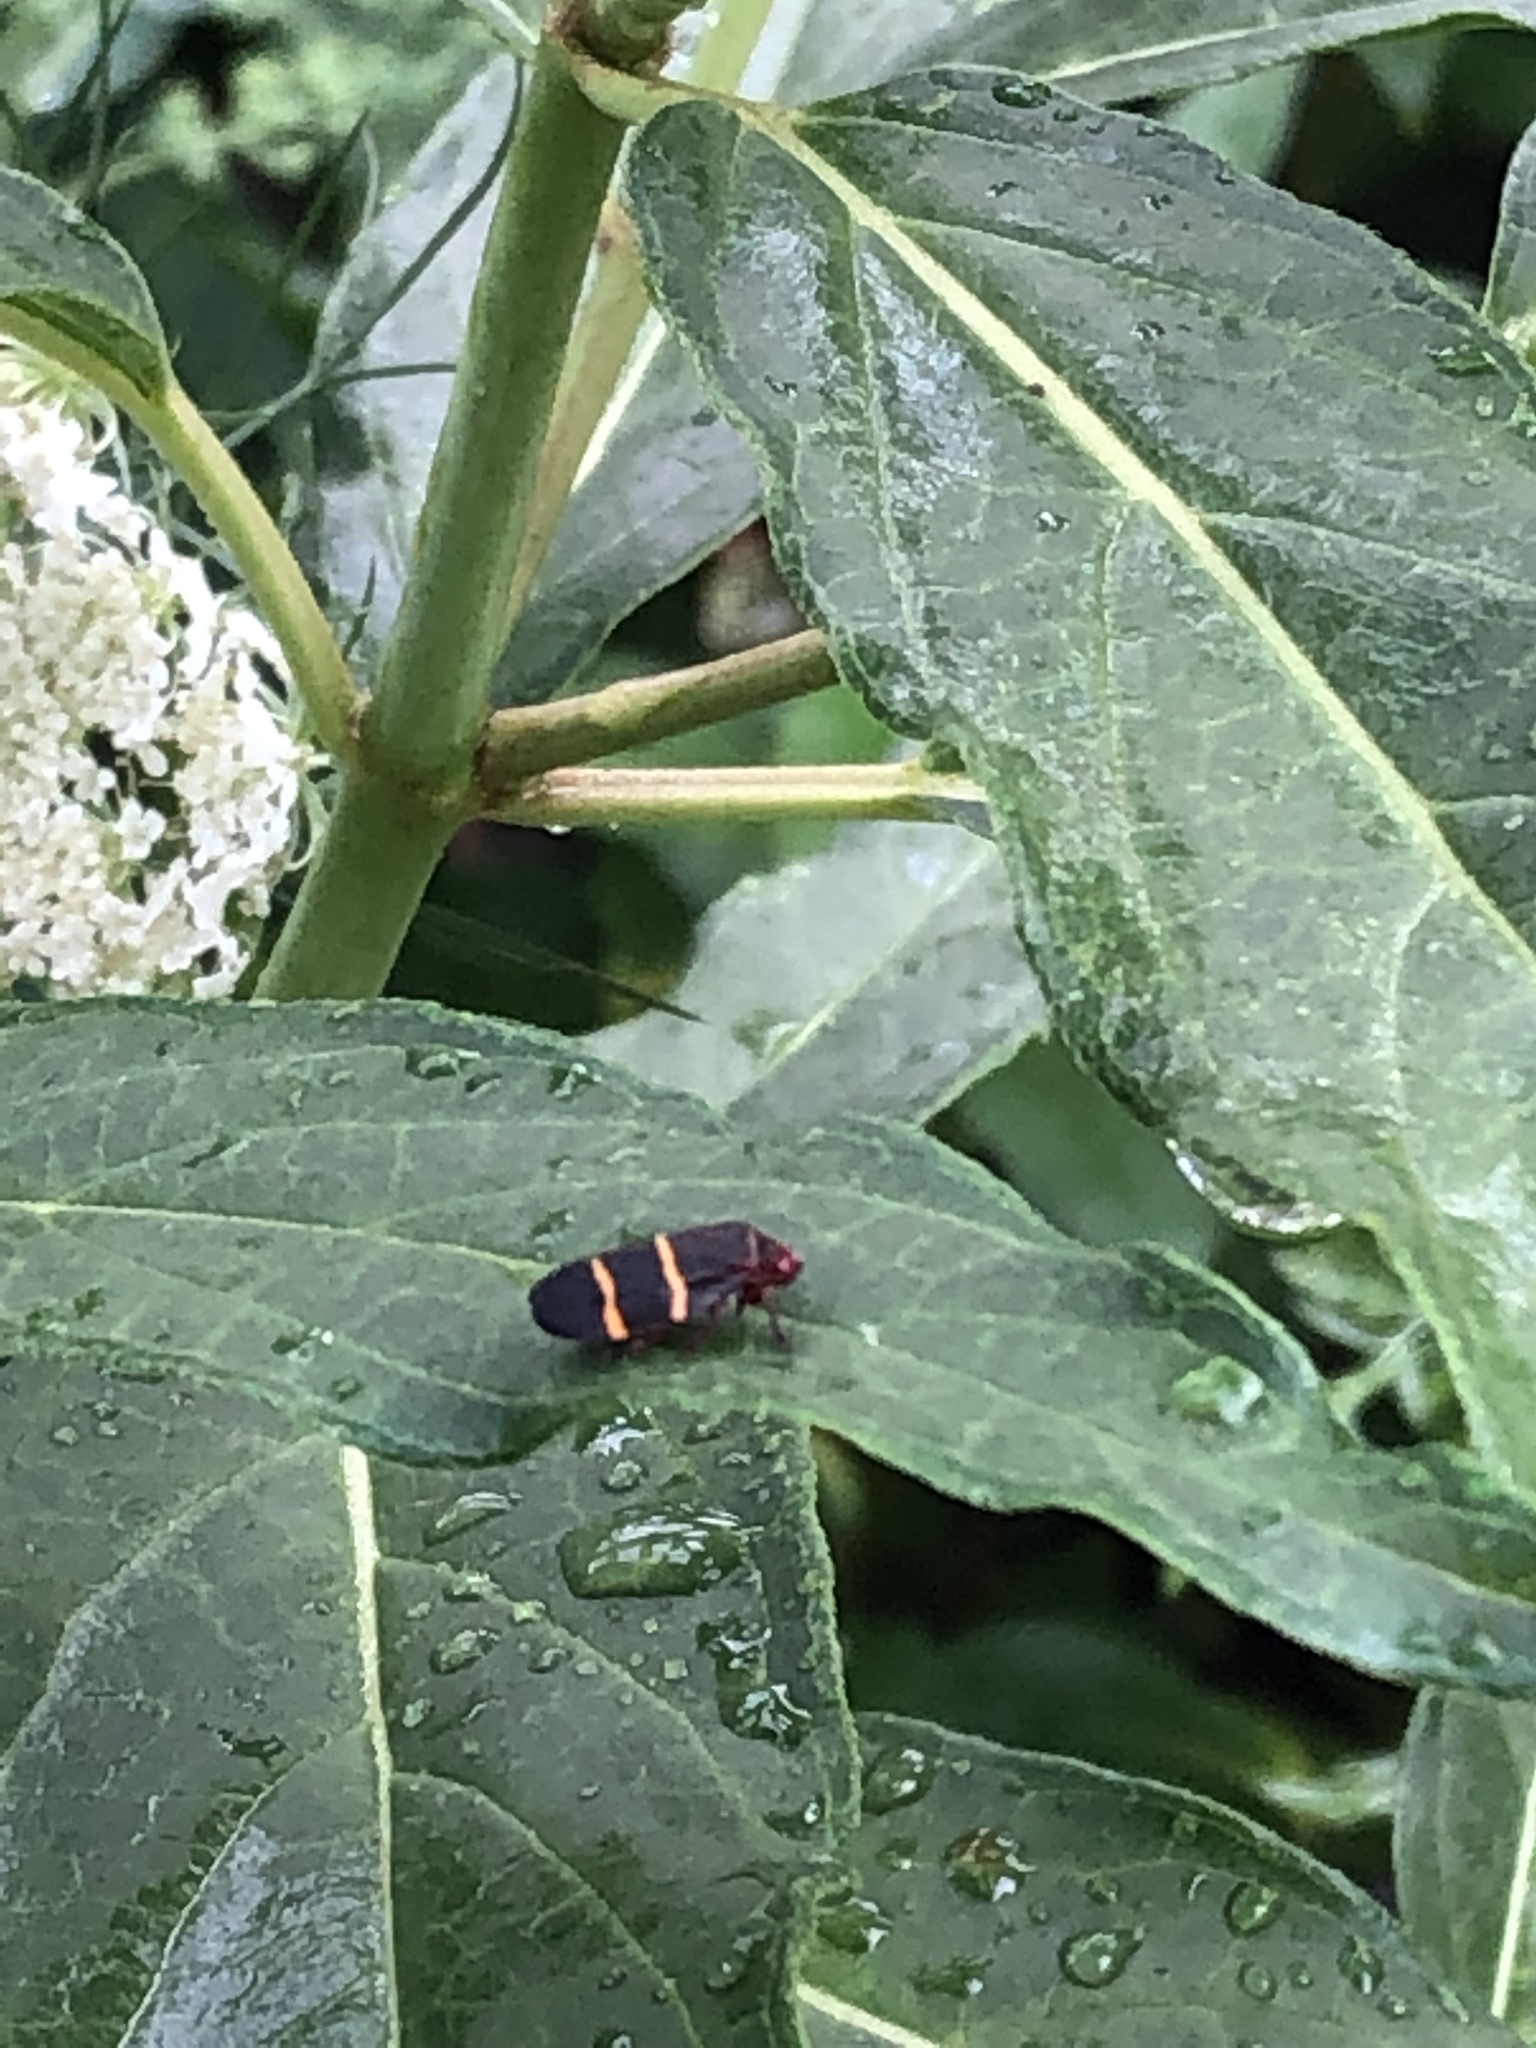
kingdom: Animalia
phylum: Arthropoda
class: Insecta
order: Hemiptera
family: Cercopidae
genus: Prosapia
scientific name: Prosapia bicincta
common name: Twolined spittlebug
